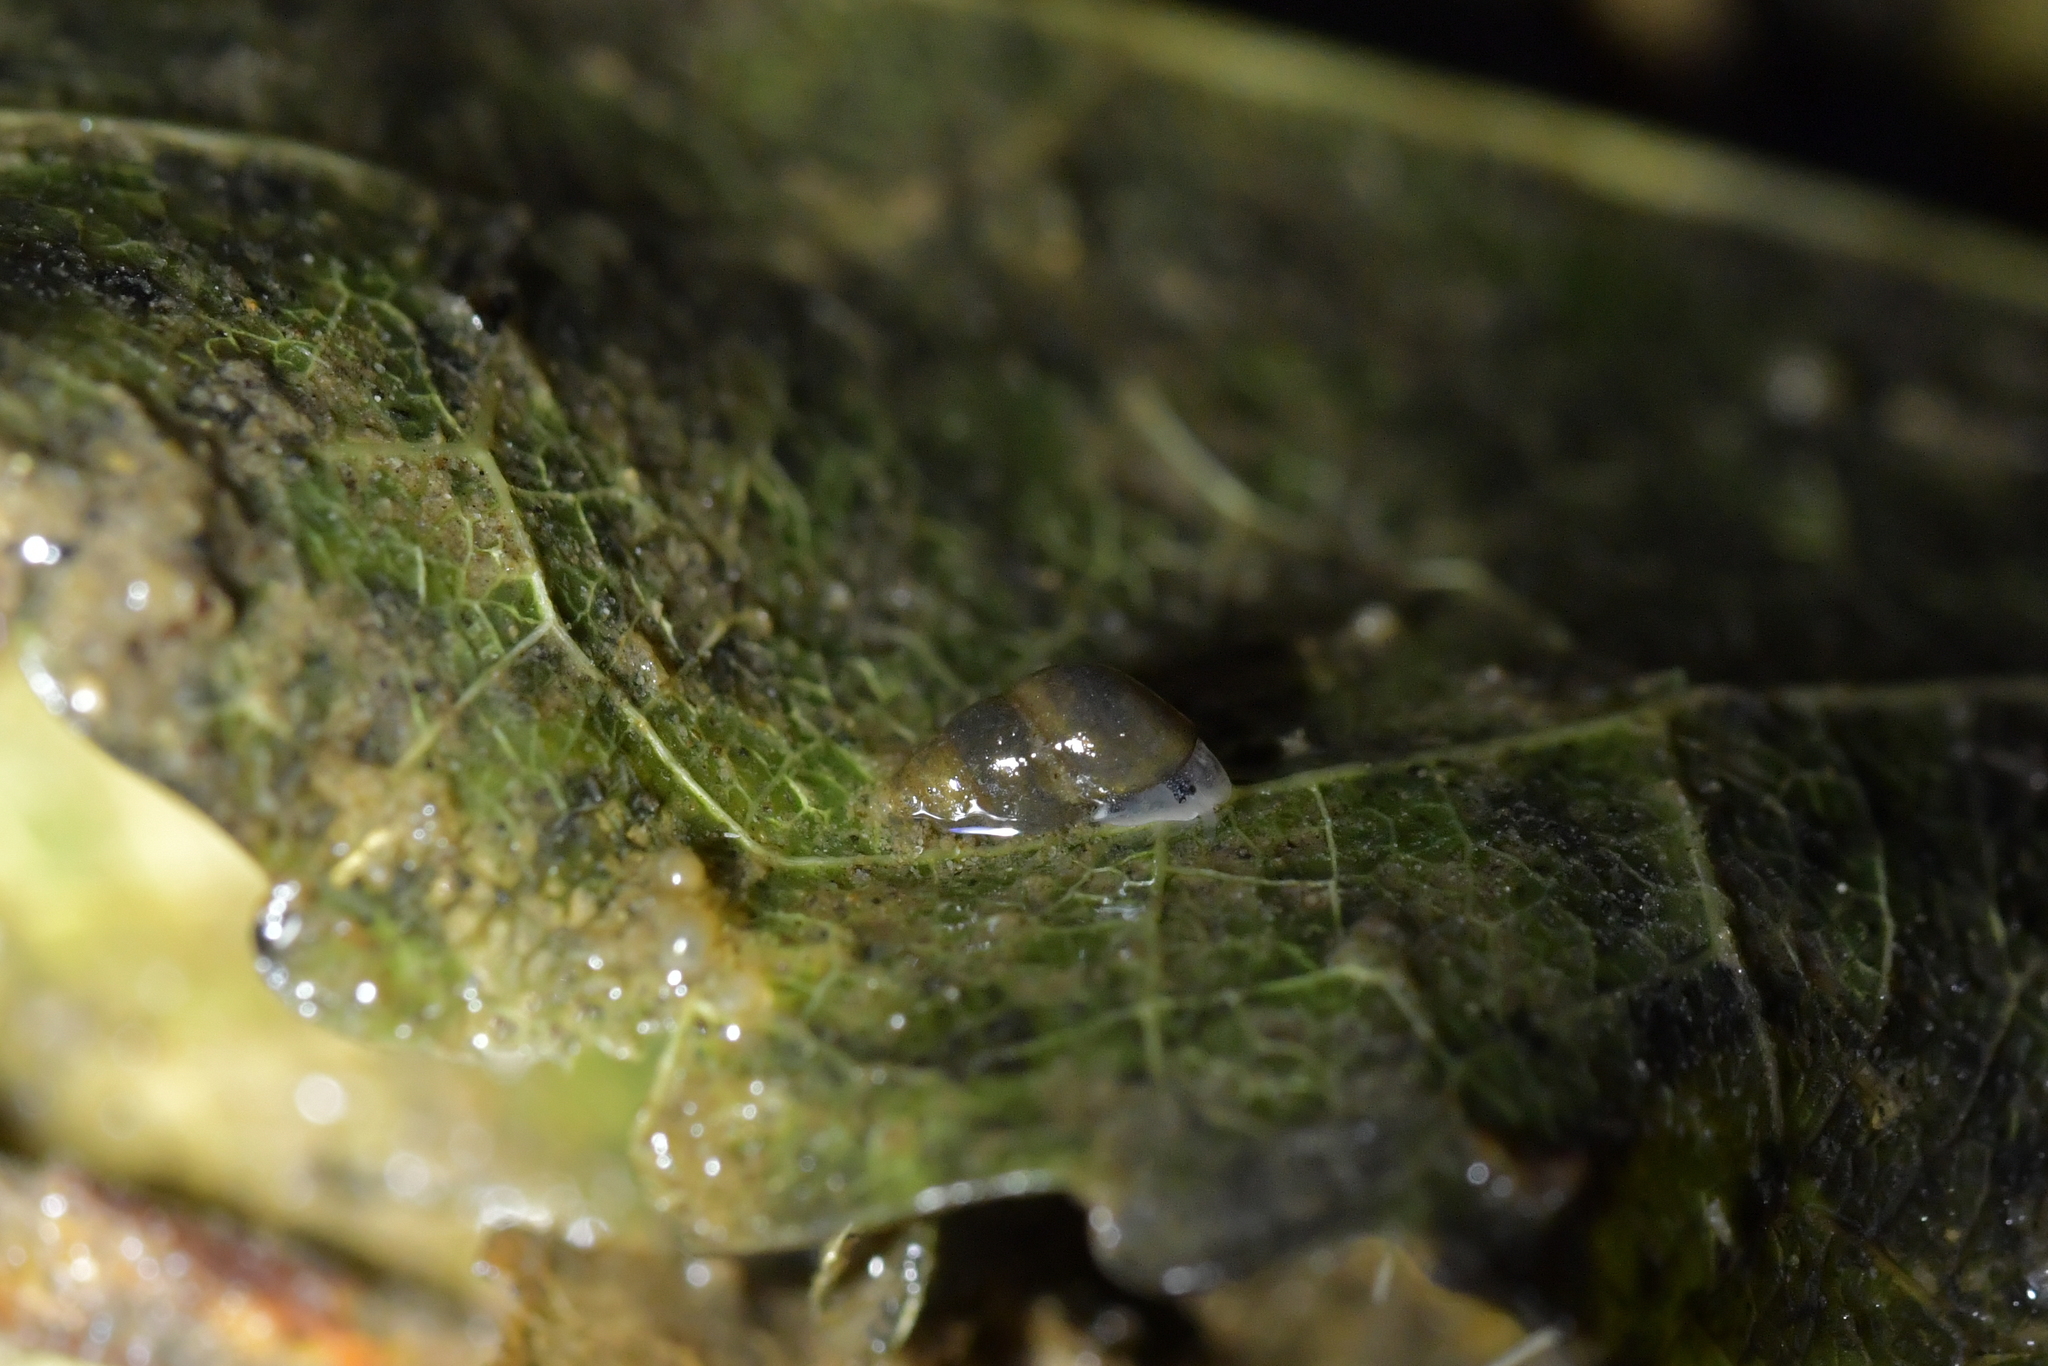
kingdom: Animalia
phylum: Mollusca
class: Gastropoda
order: Littorinimorpha
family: Tateidae
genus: Potamopyrgus
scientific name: Potamopyrgus antipodarum
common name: Jenkins' spire snail
